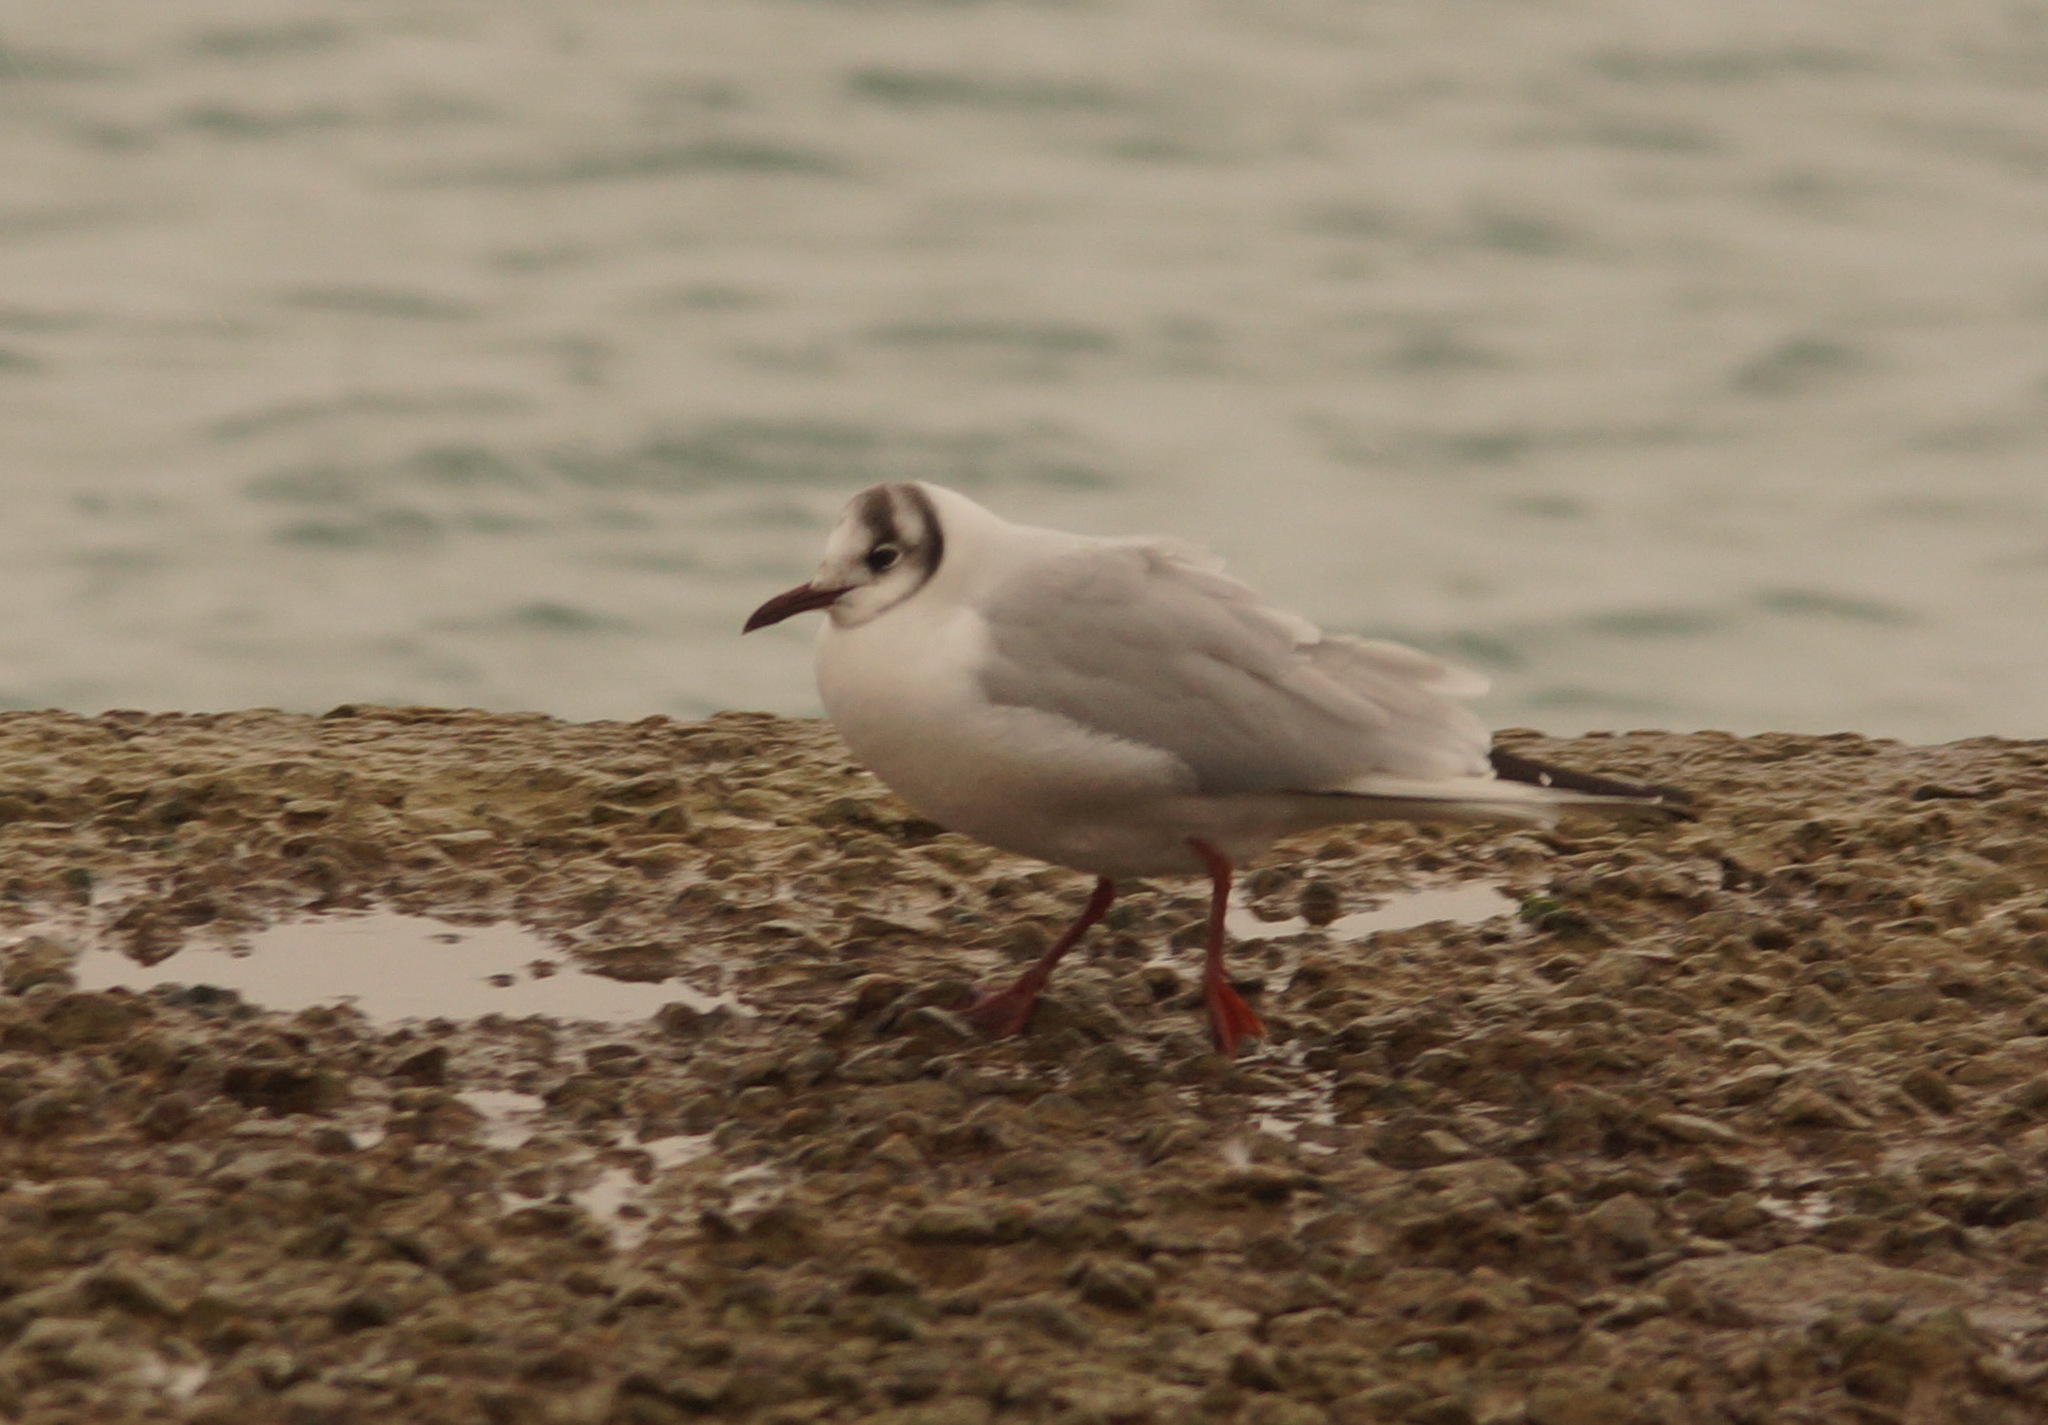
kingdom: Animalia
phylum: Chordata
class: Aves
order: Charadriiformes
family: Laridae
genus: Chroicocephalus
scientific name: Chroicocephalus ridibundus
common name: Black-headed gull
